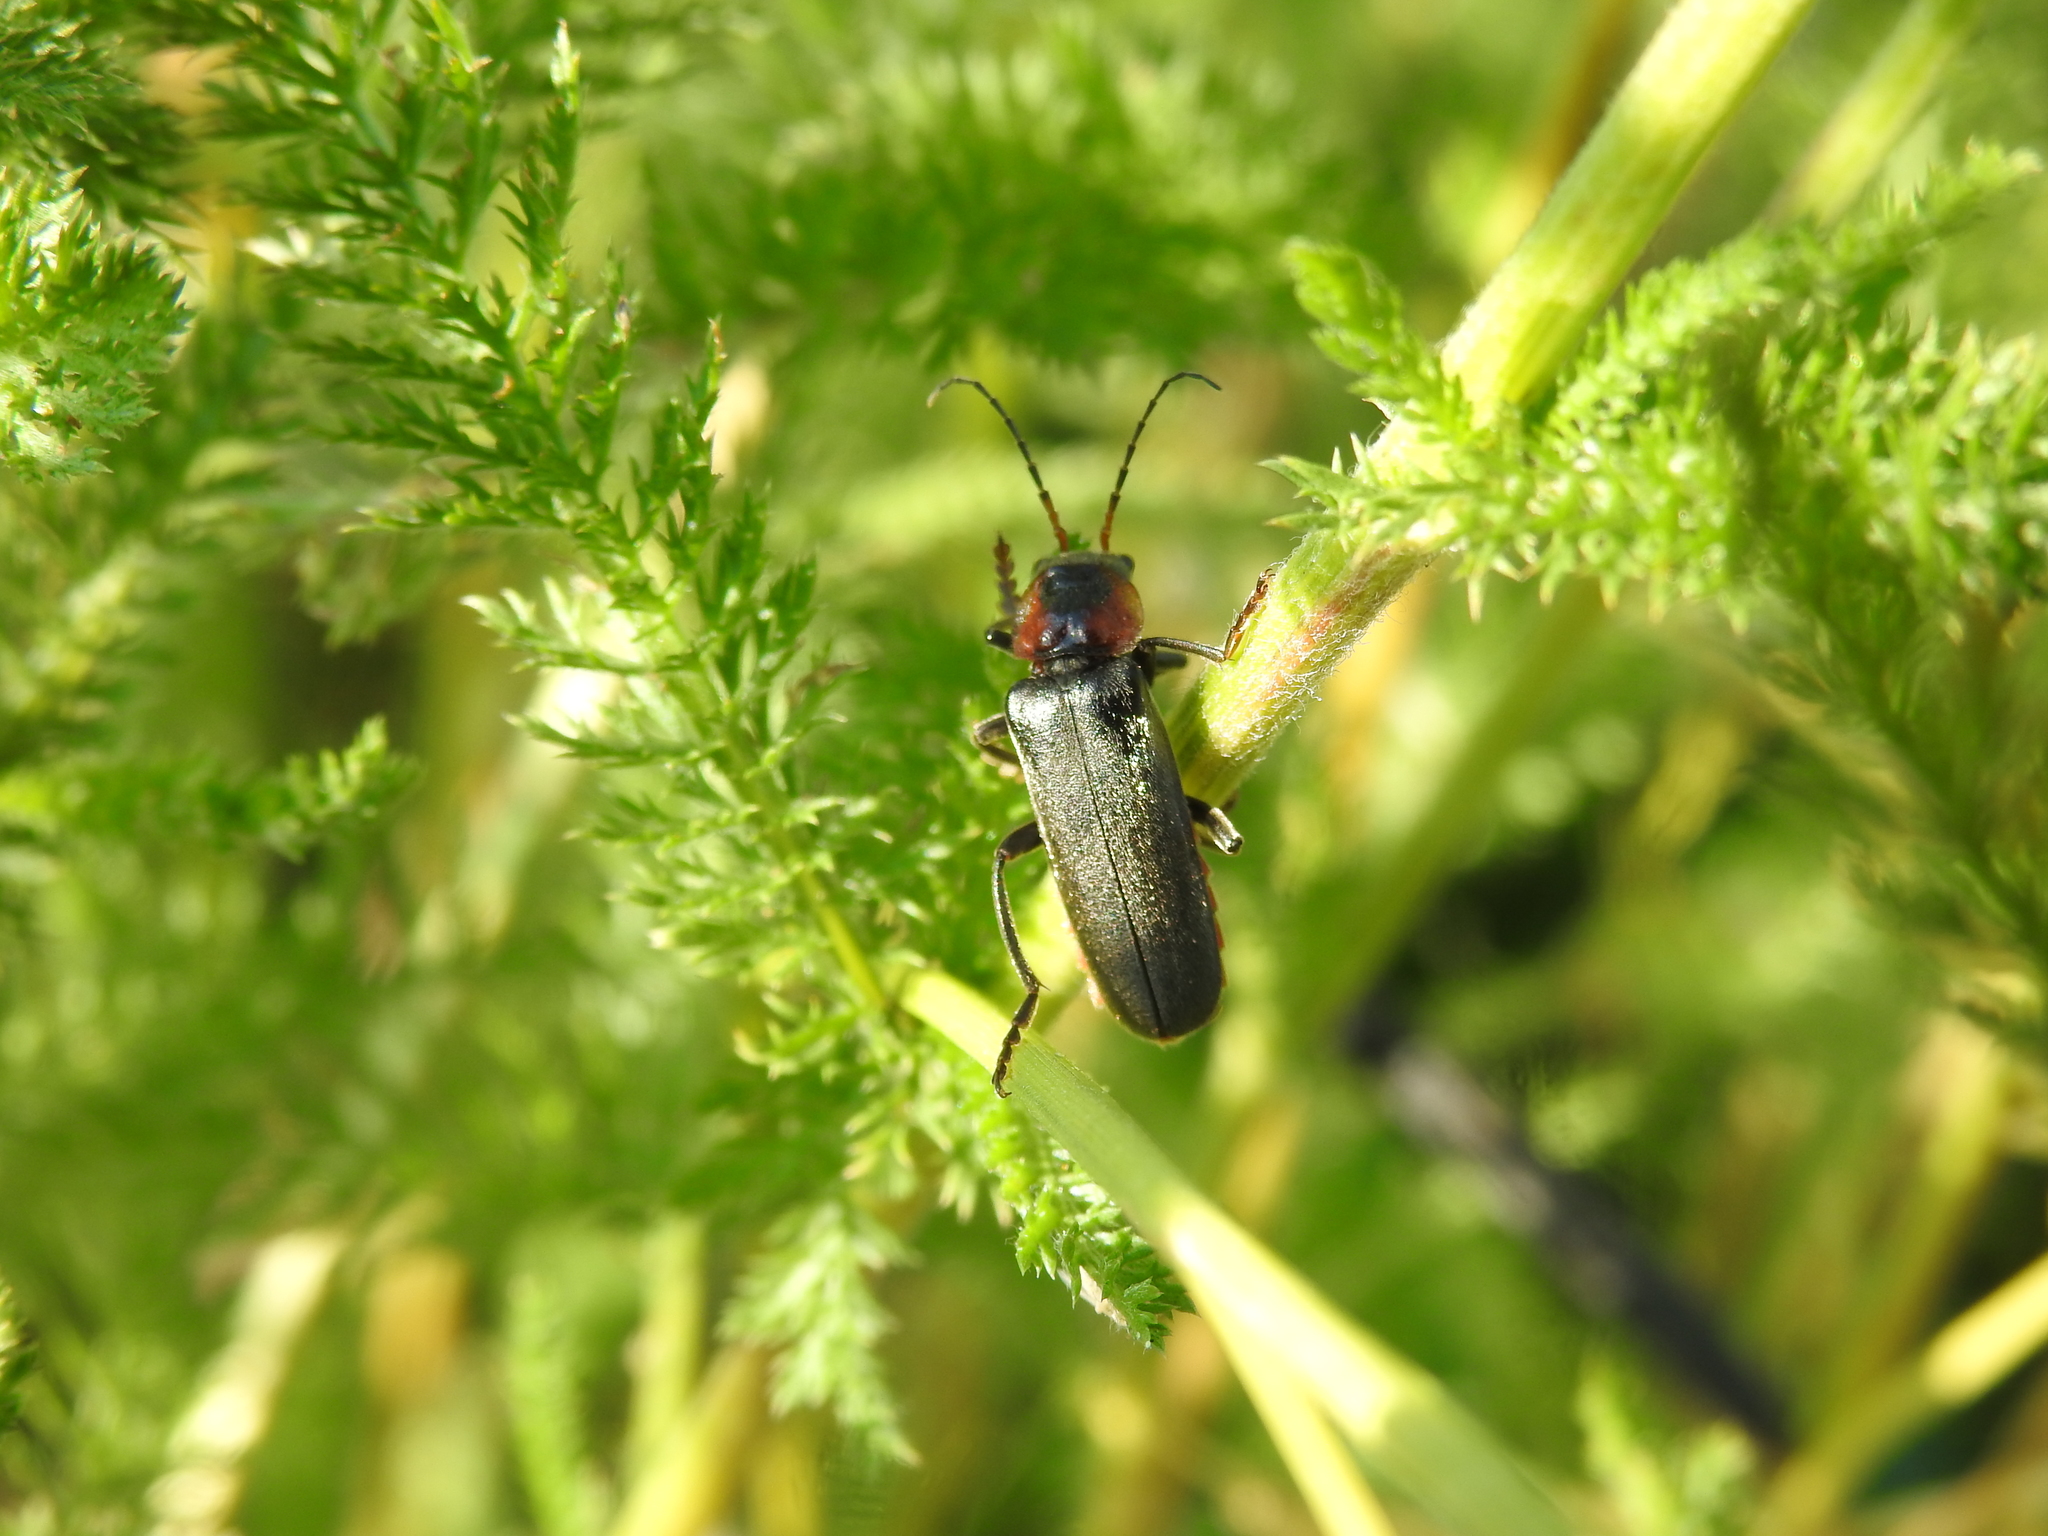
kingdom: Animalia
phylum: Arthropoda
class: Insecta
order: Coleoptera
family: Cantharidae
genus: Cantharis
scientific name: Cantharis fusca
